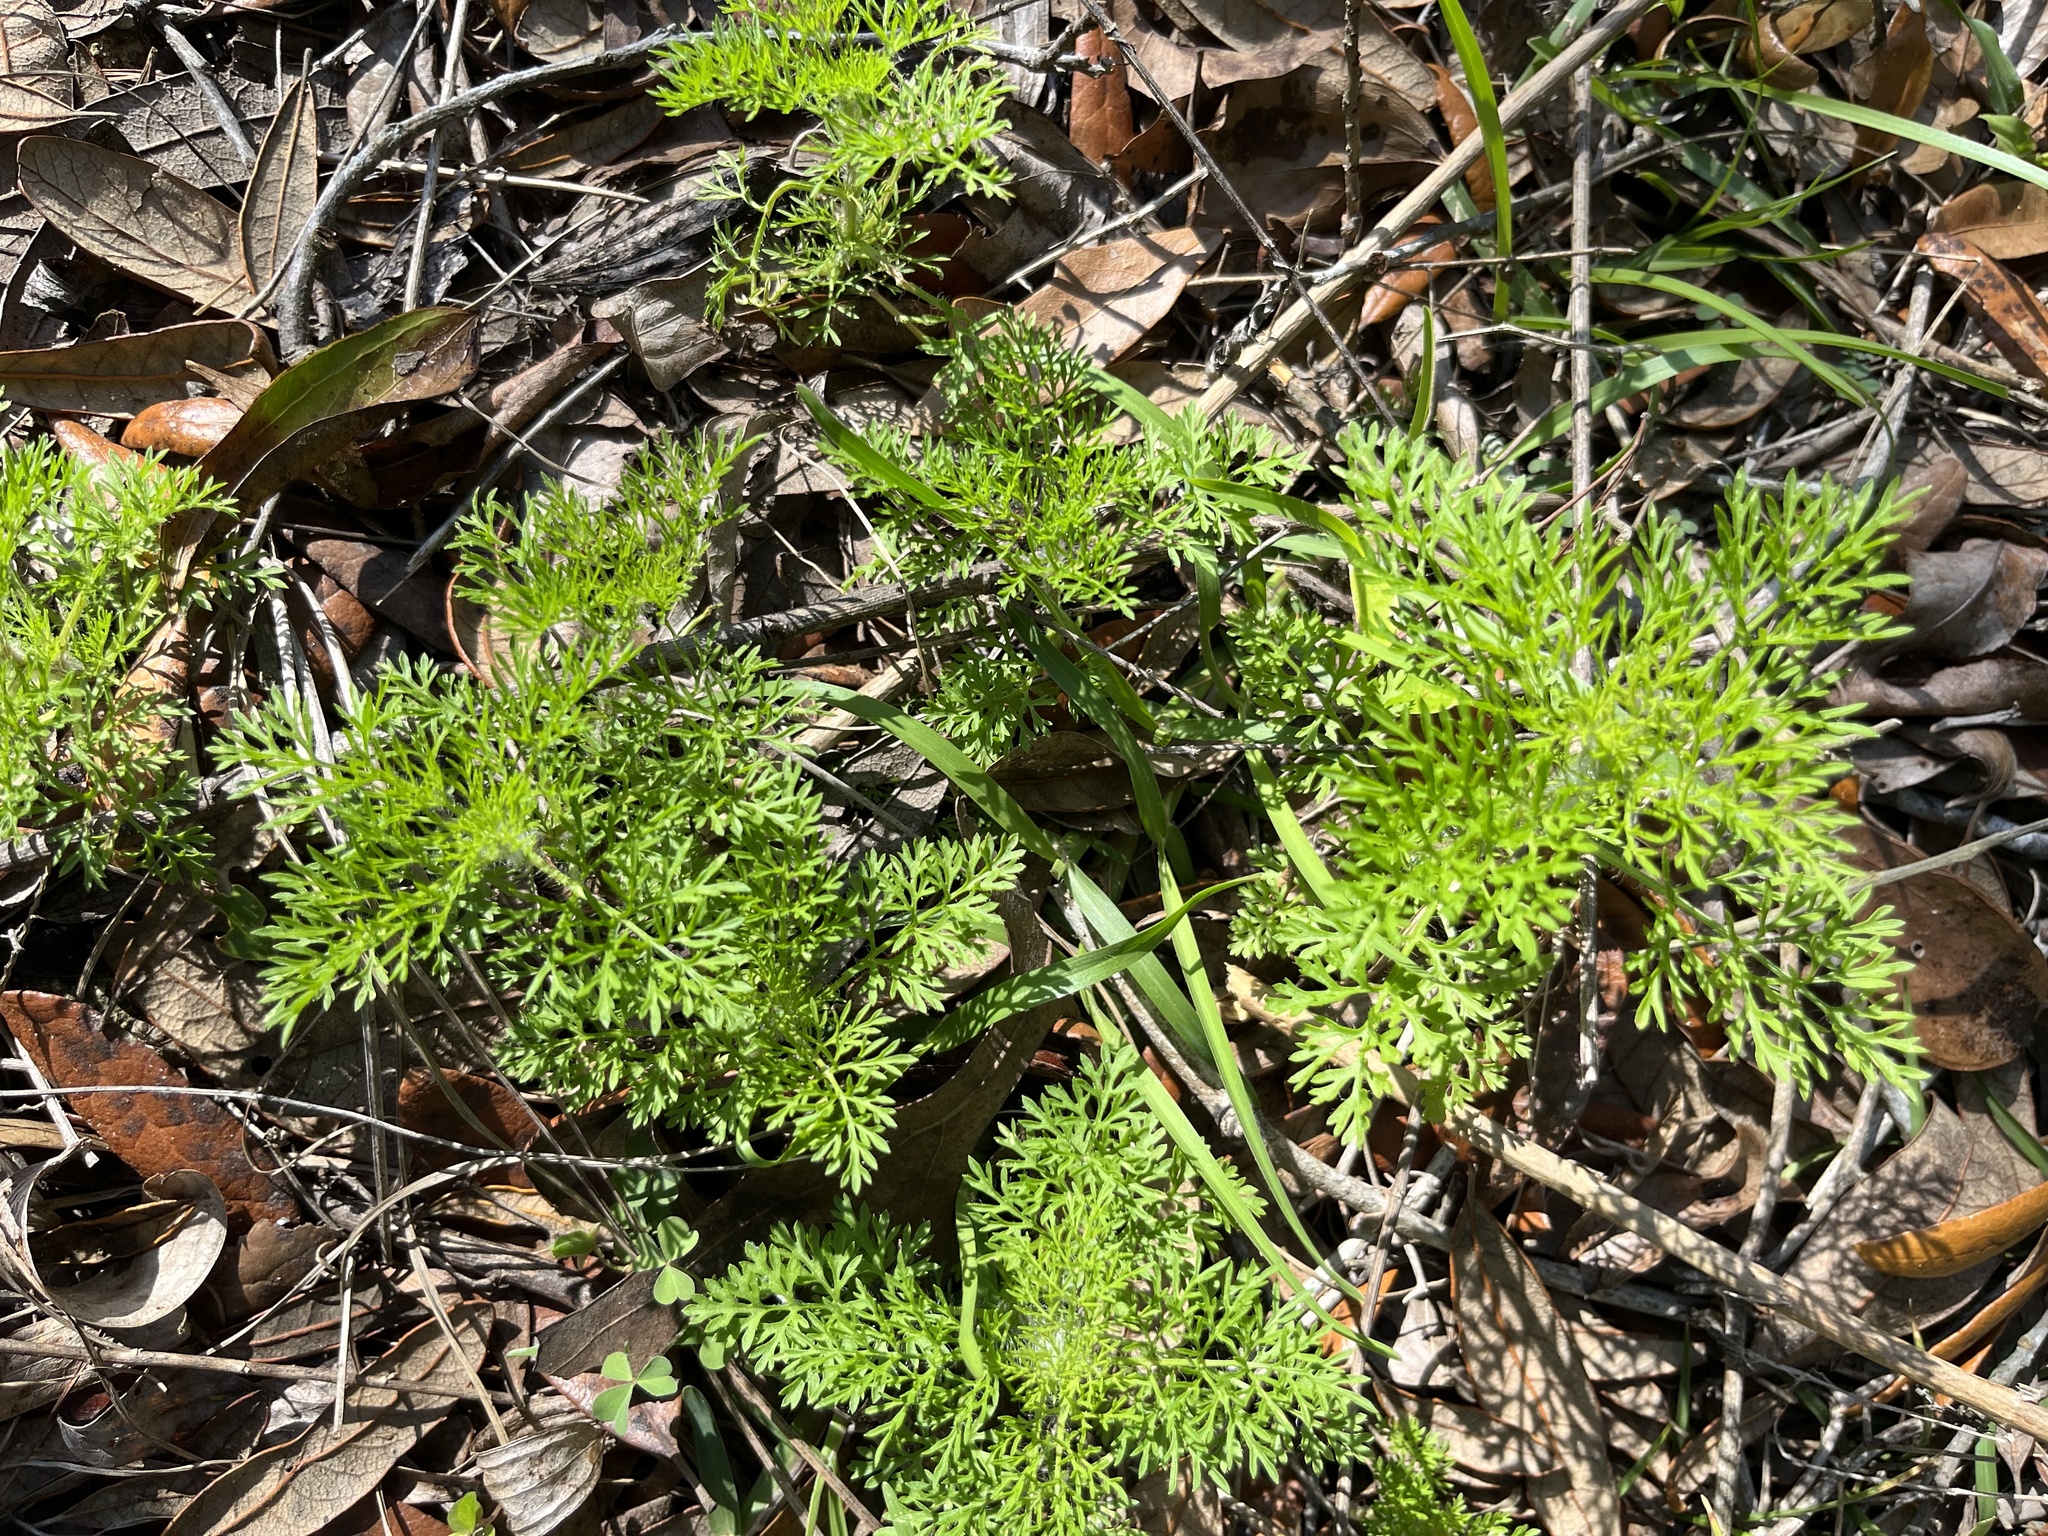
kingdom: Plantae
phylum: Tracheophyta
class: Magnoliopsida
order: Asterales
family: Asteraceae
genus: Ambrosia
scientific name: Ambrosia artemisiifolia
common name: Annual ragweed
